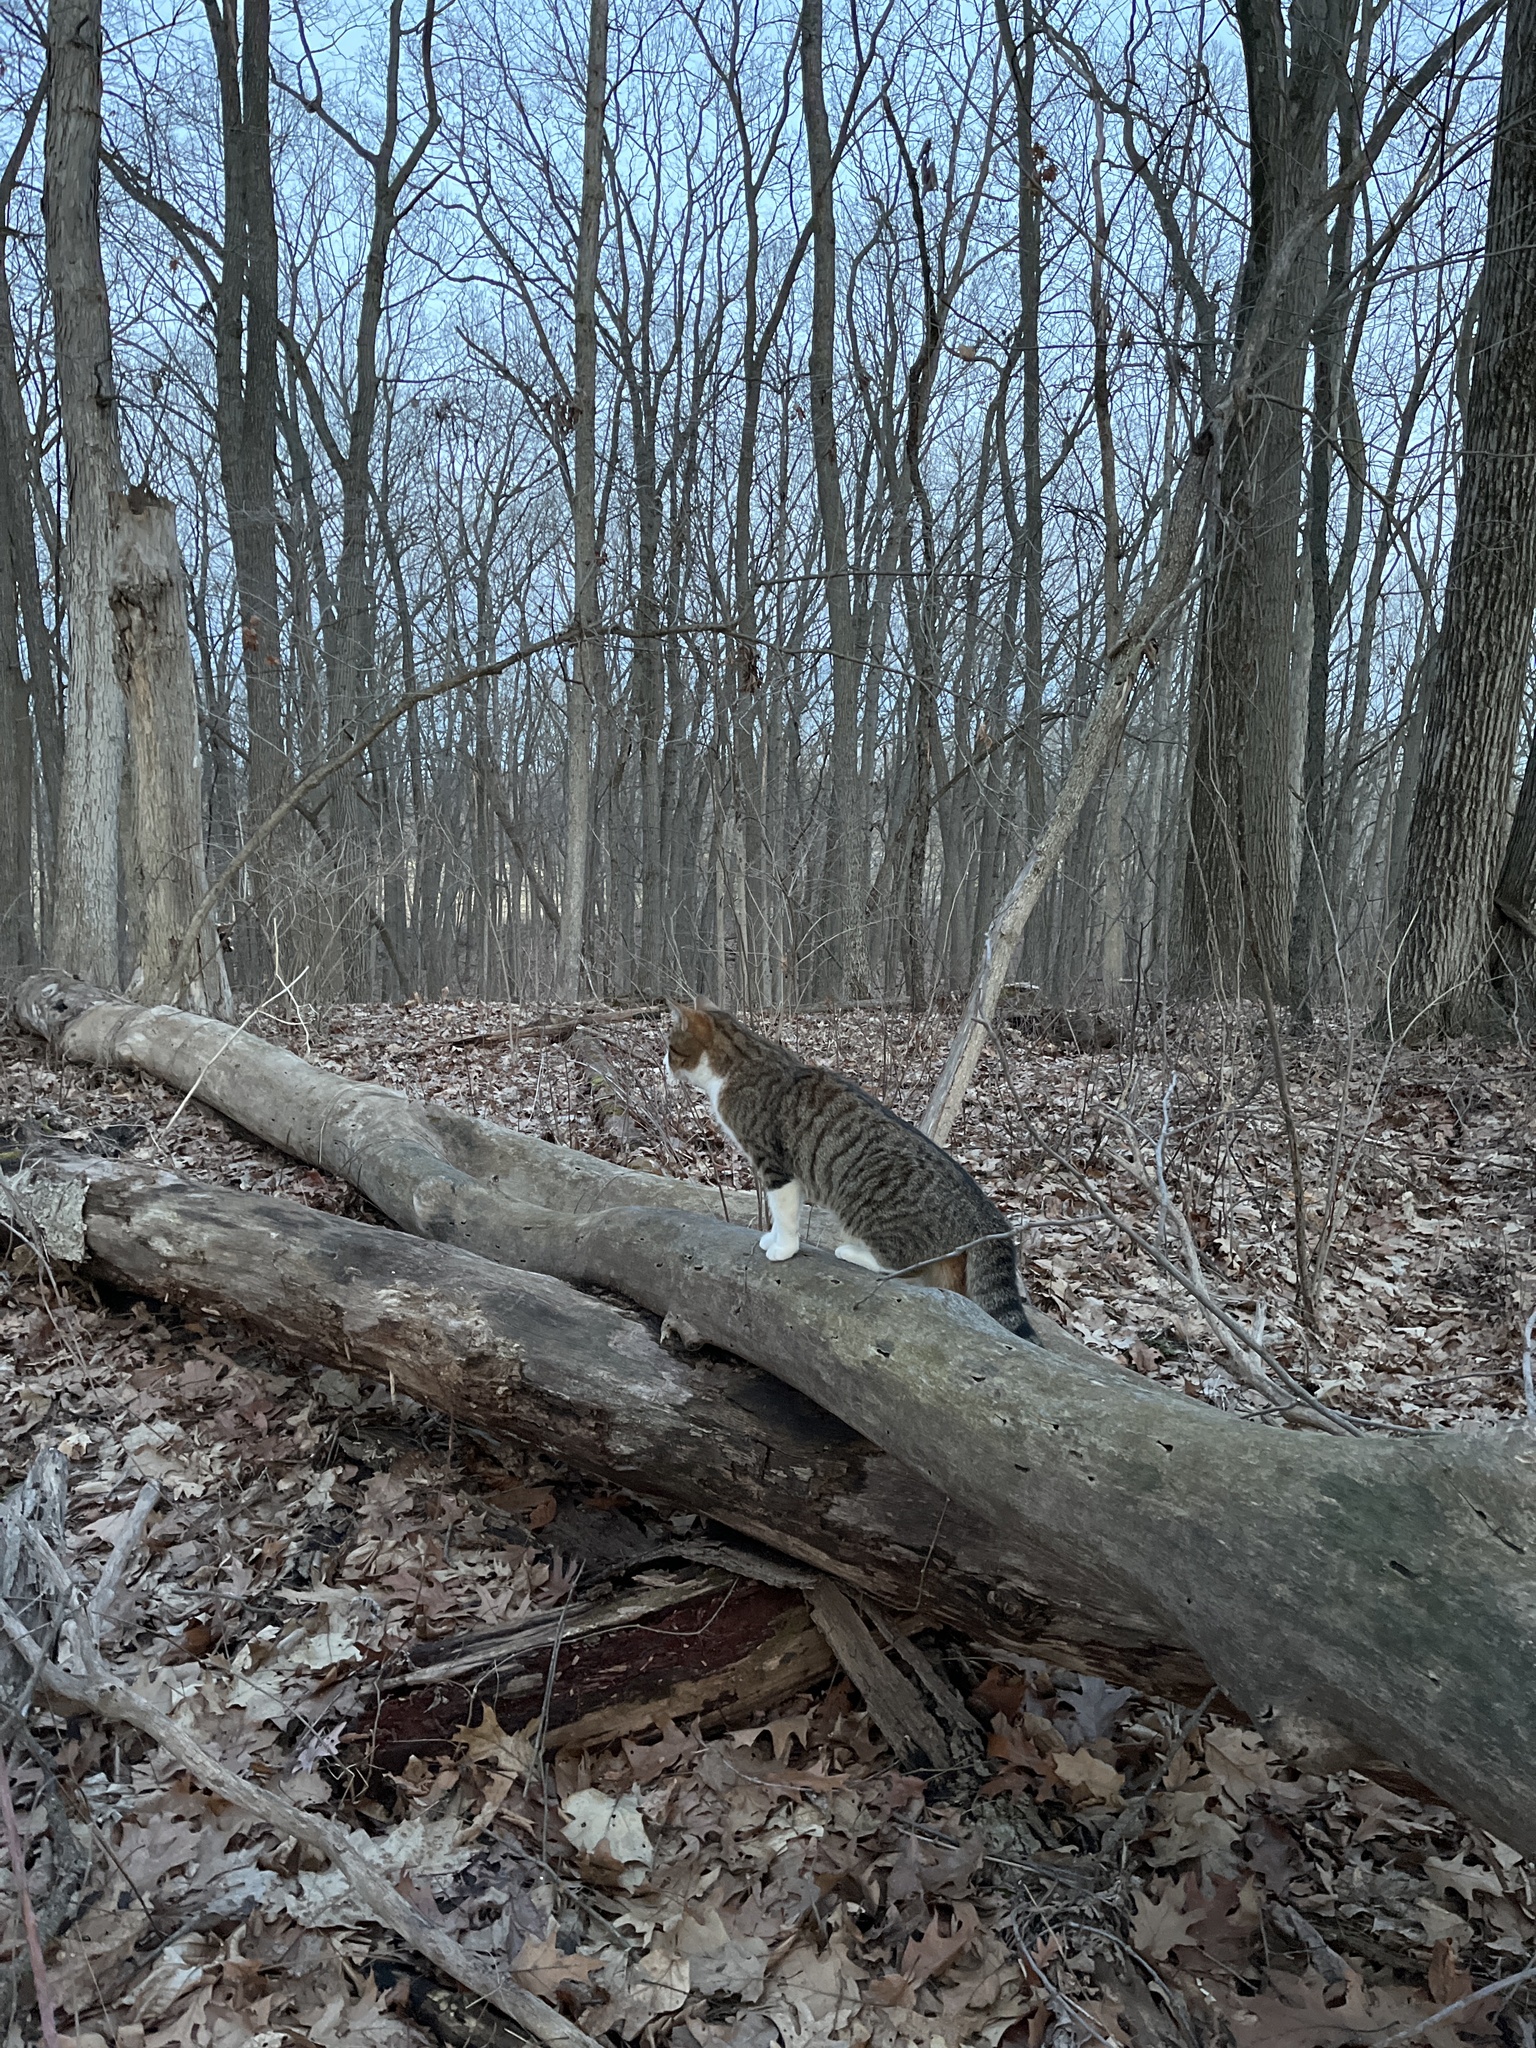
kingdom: Animalia
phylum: Chordata
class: Mammalia
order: Carnivora
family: Felidae
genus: Felis
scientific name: Felis catus
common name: Domestic cat
